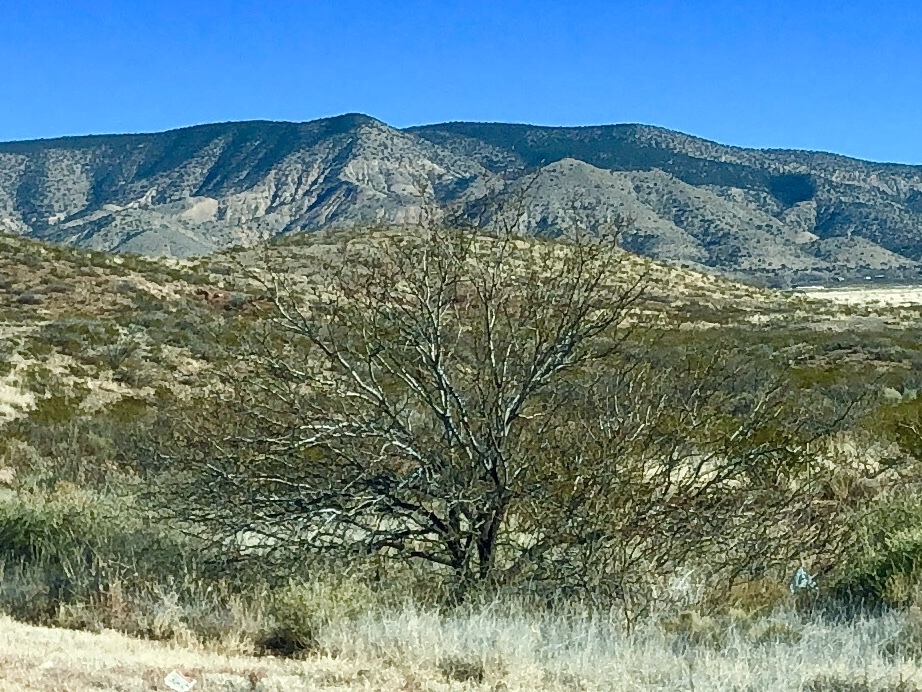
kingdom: Plantae
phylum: Tracheophyta
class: Magnoliopsida
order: Fabales
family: Fabaceae
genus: Prosopis
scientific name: Prosopis glandulosa
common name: Honey mesquite
